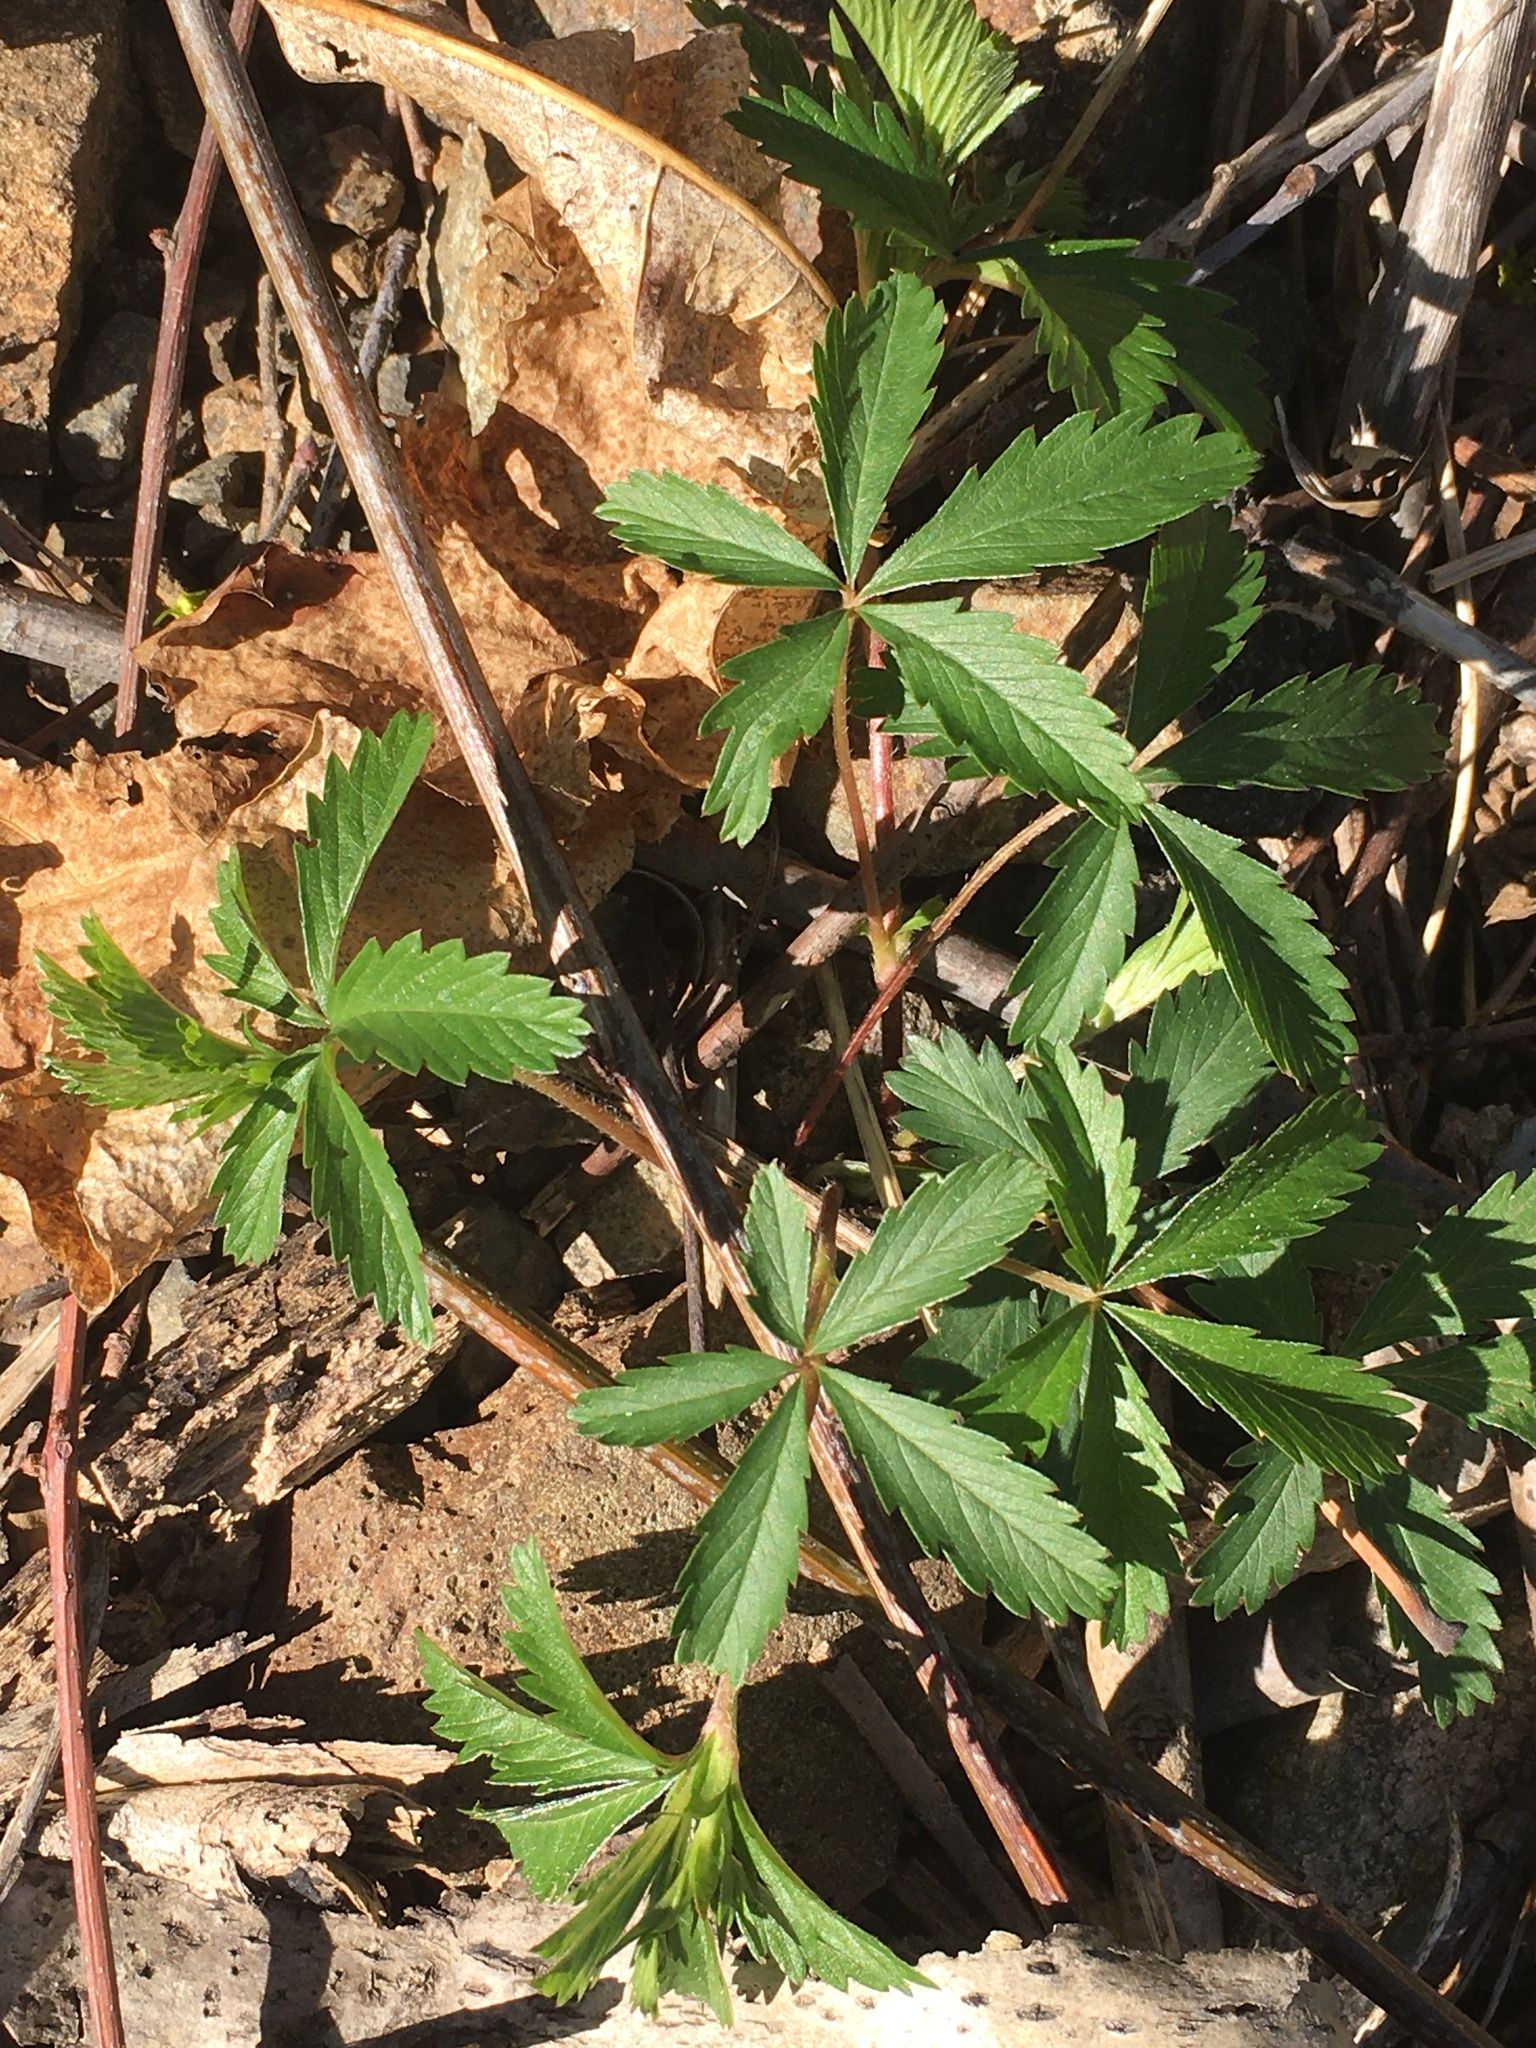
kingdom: Plantae
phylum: Tracheophyta
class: Magnoliopsida
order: Rosales
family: Rosaceae
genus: Potentilla
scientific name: Potentilla simplex
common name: Old field cinquefoil
